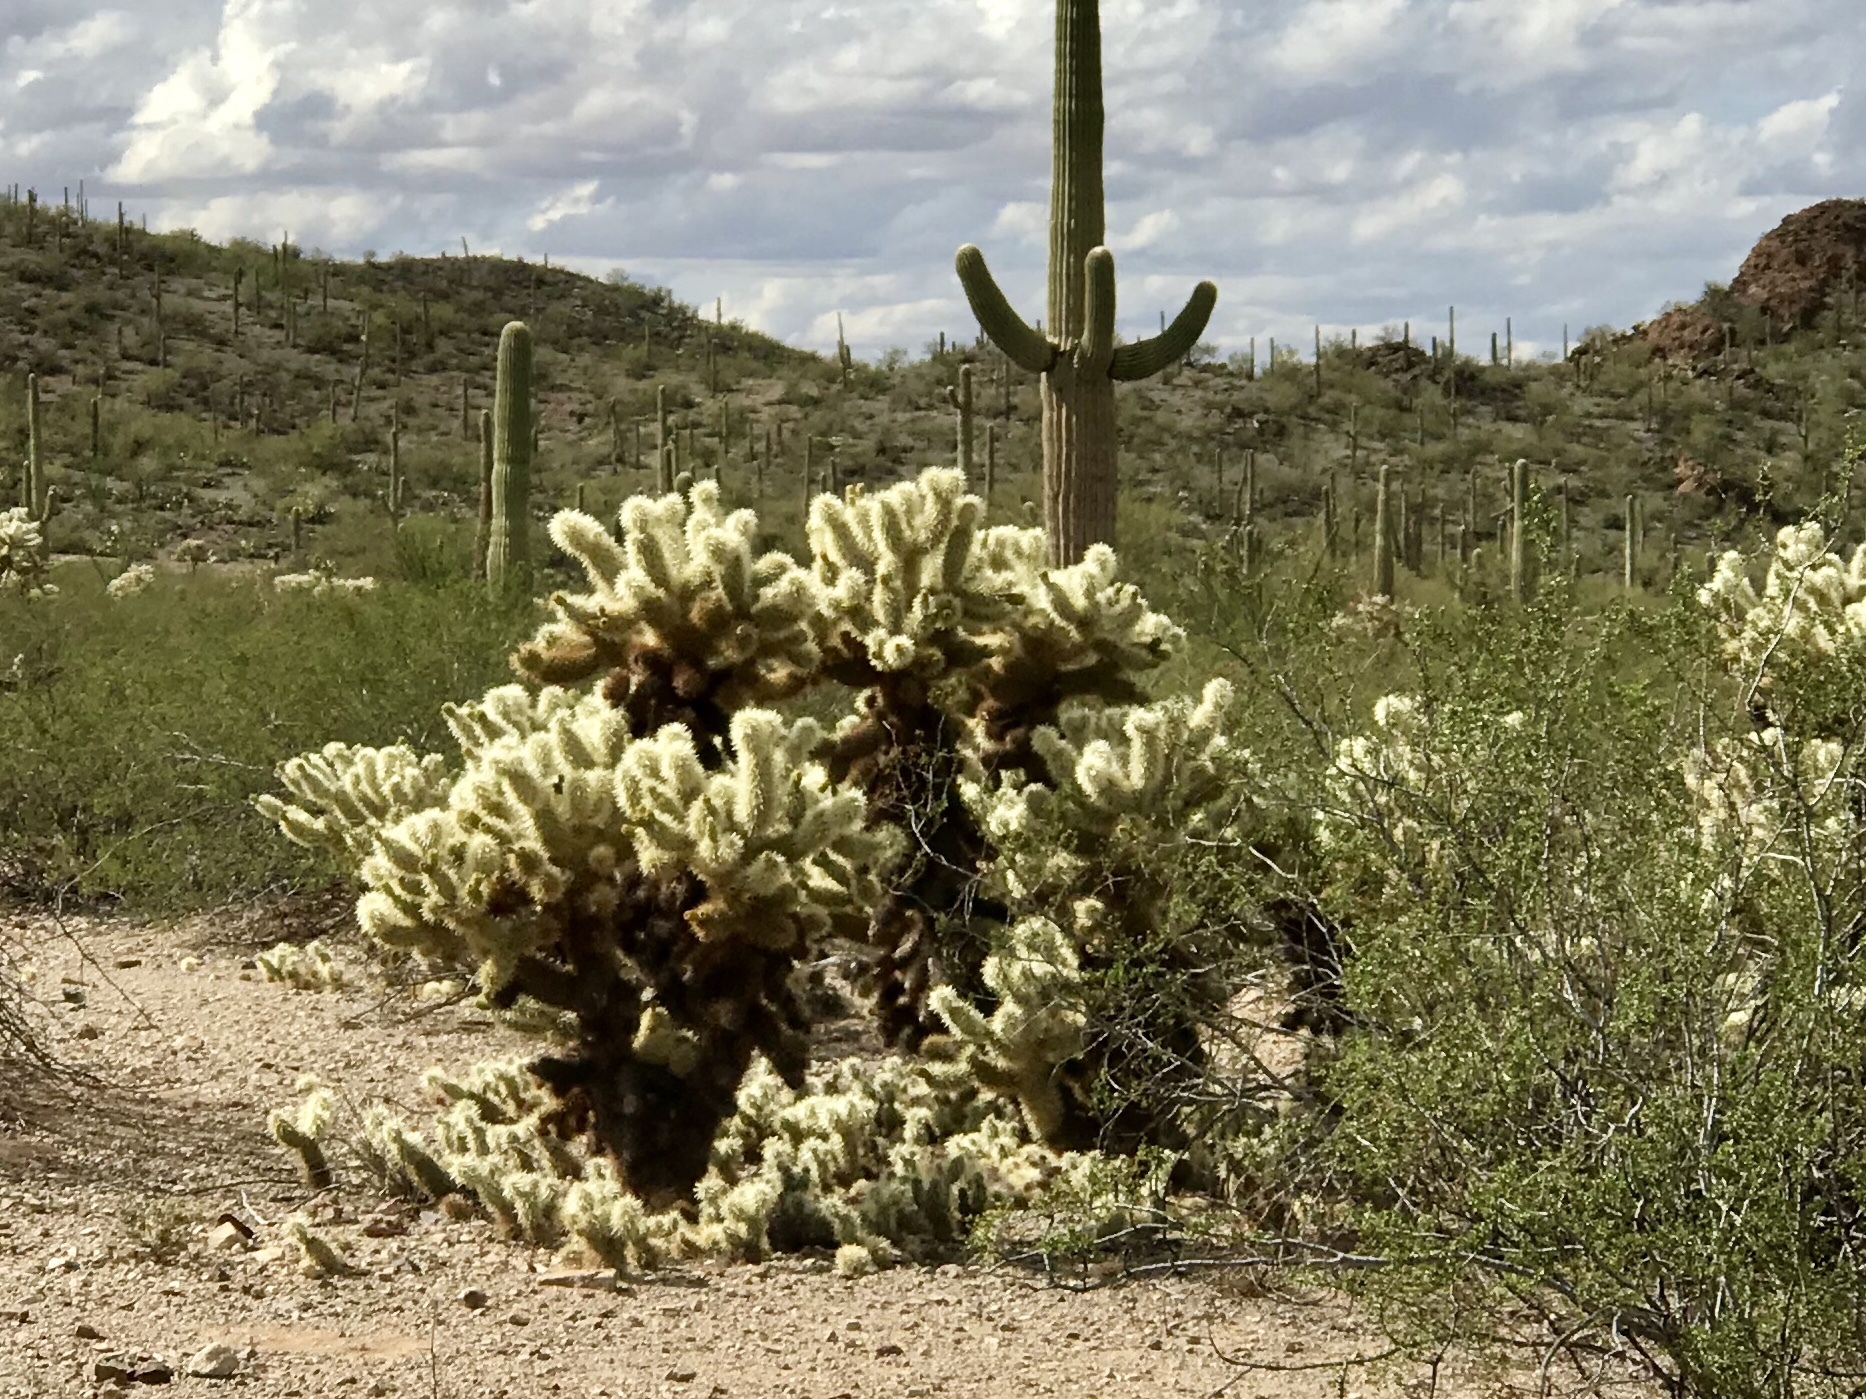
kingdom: Plantae
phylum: Tracheophyta
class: Magnoliopsida
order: Caryophyllales
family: Cactaceae
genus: Cylindropuntia
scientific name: Cylindropuntia fosbergii
